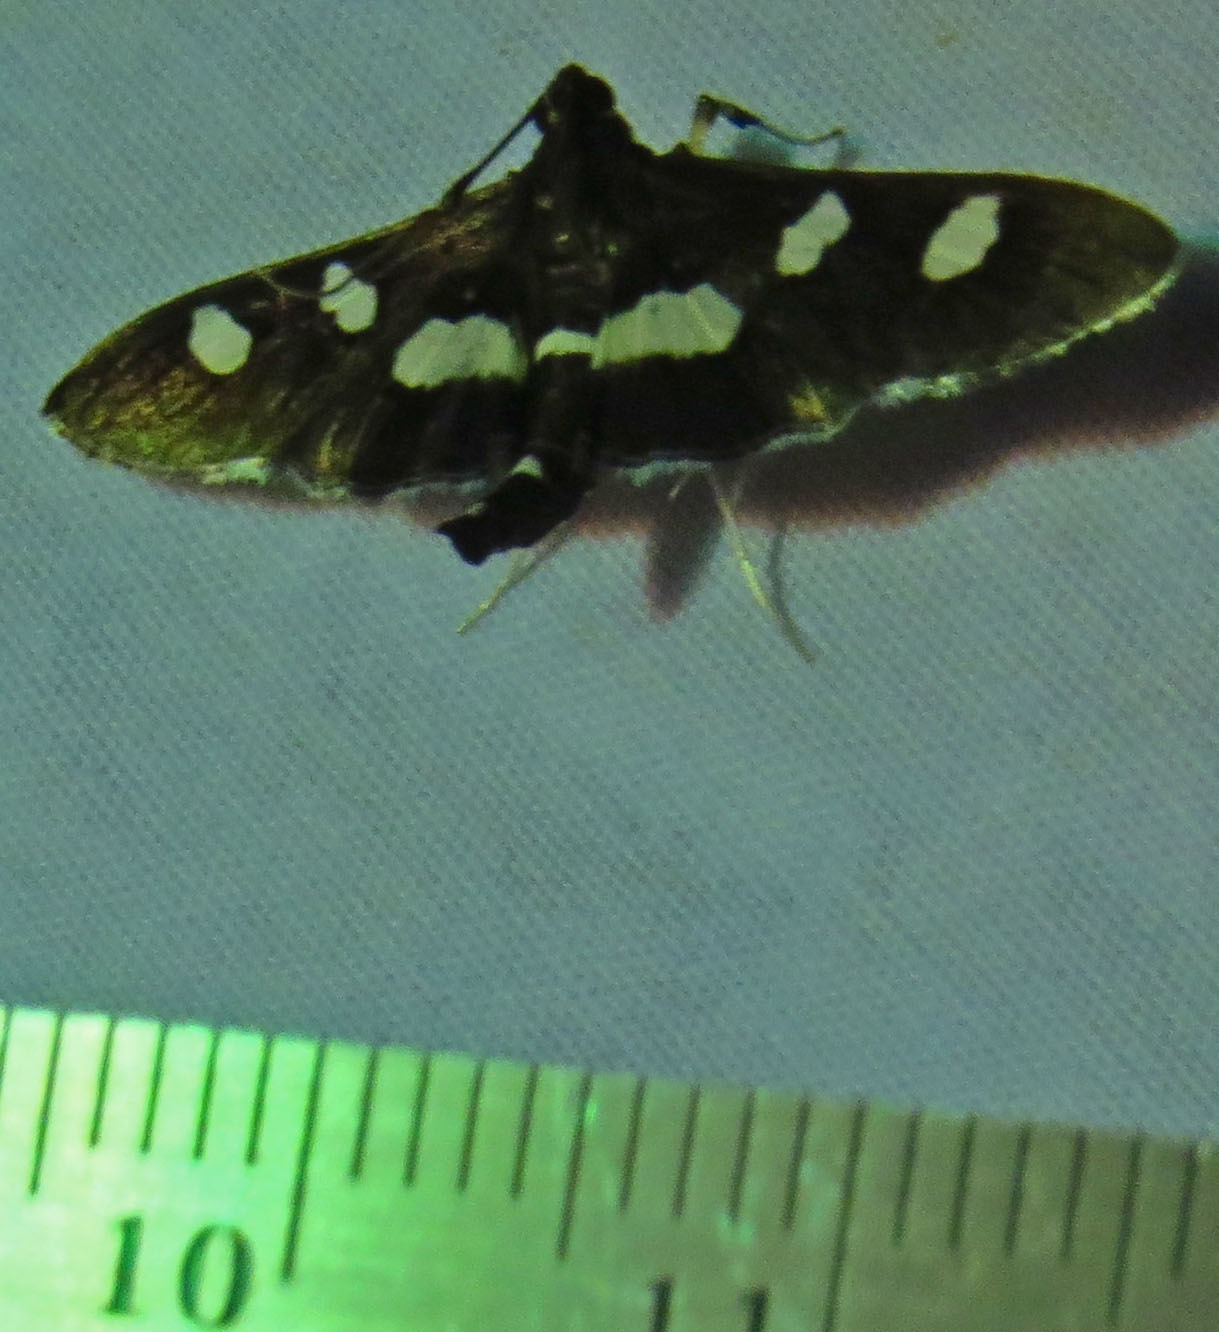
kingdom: Animalia
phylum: Arthropoda
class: Insecta
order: Lepidoptera
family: Crambidae
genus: Desmia
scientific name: Desmia funeralis
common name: Grape leaf folder moth
